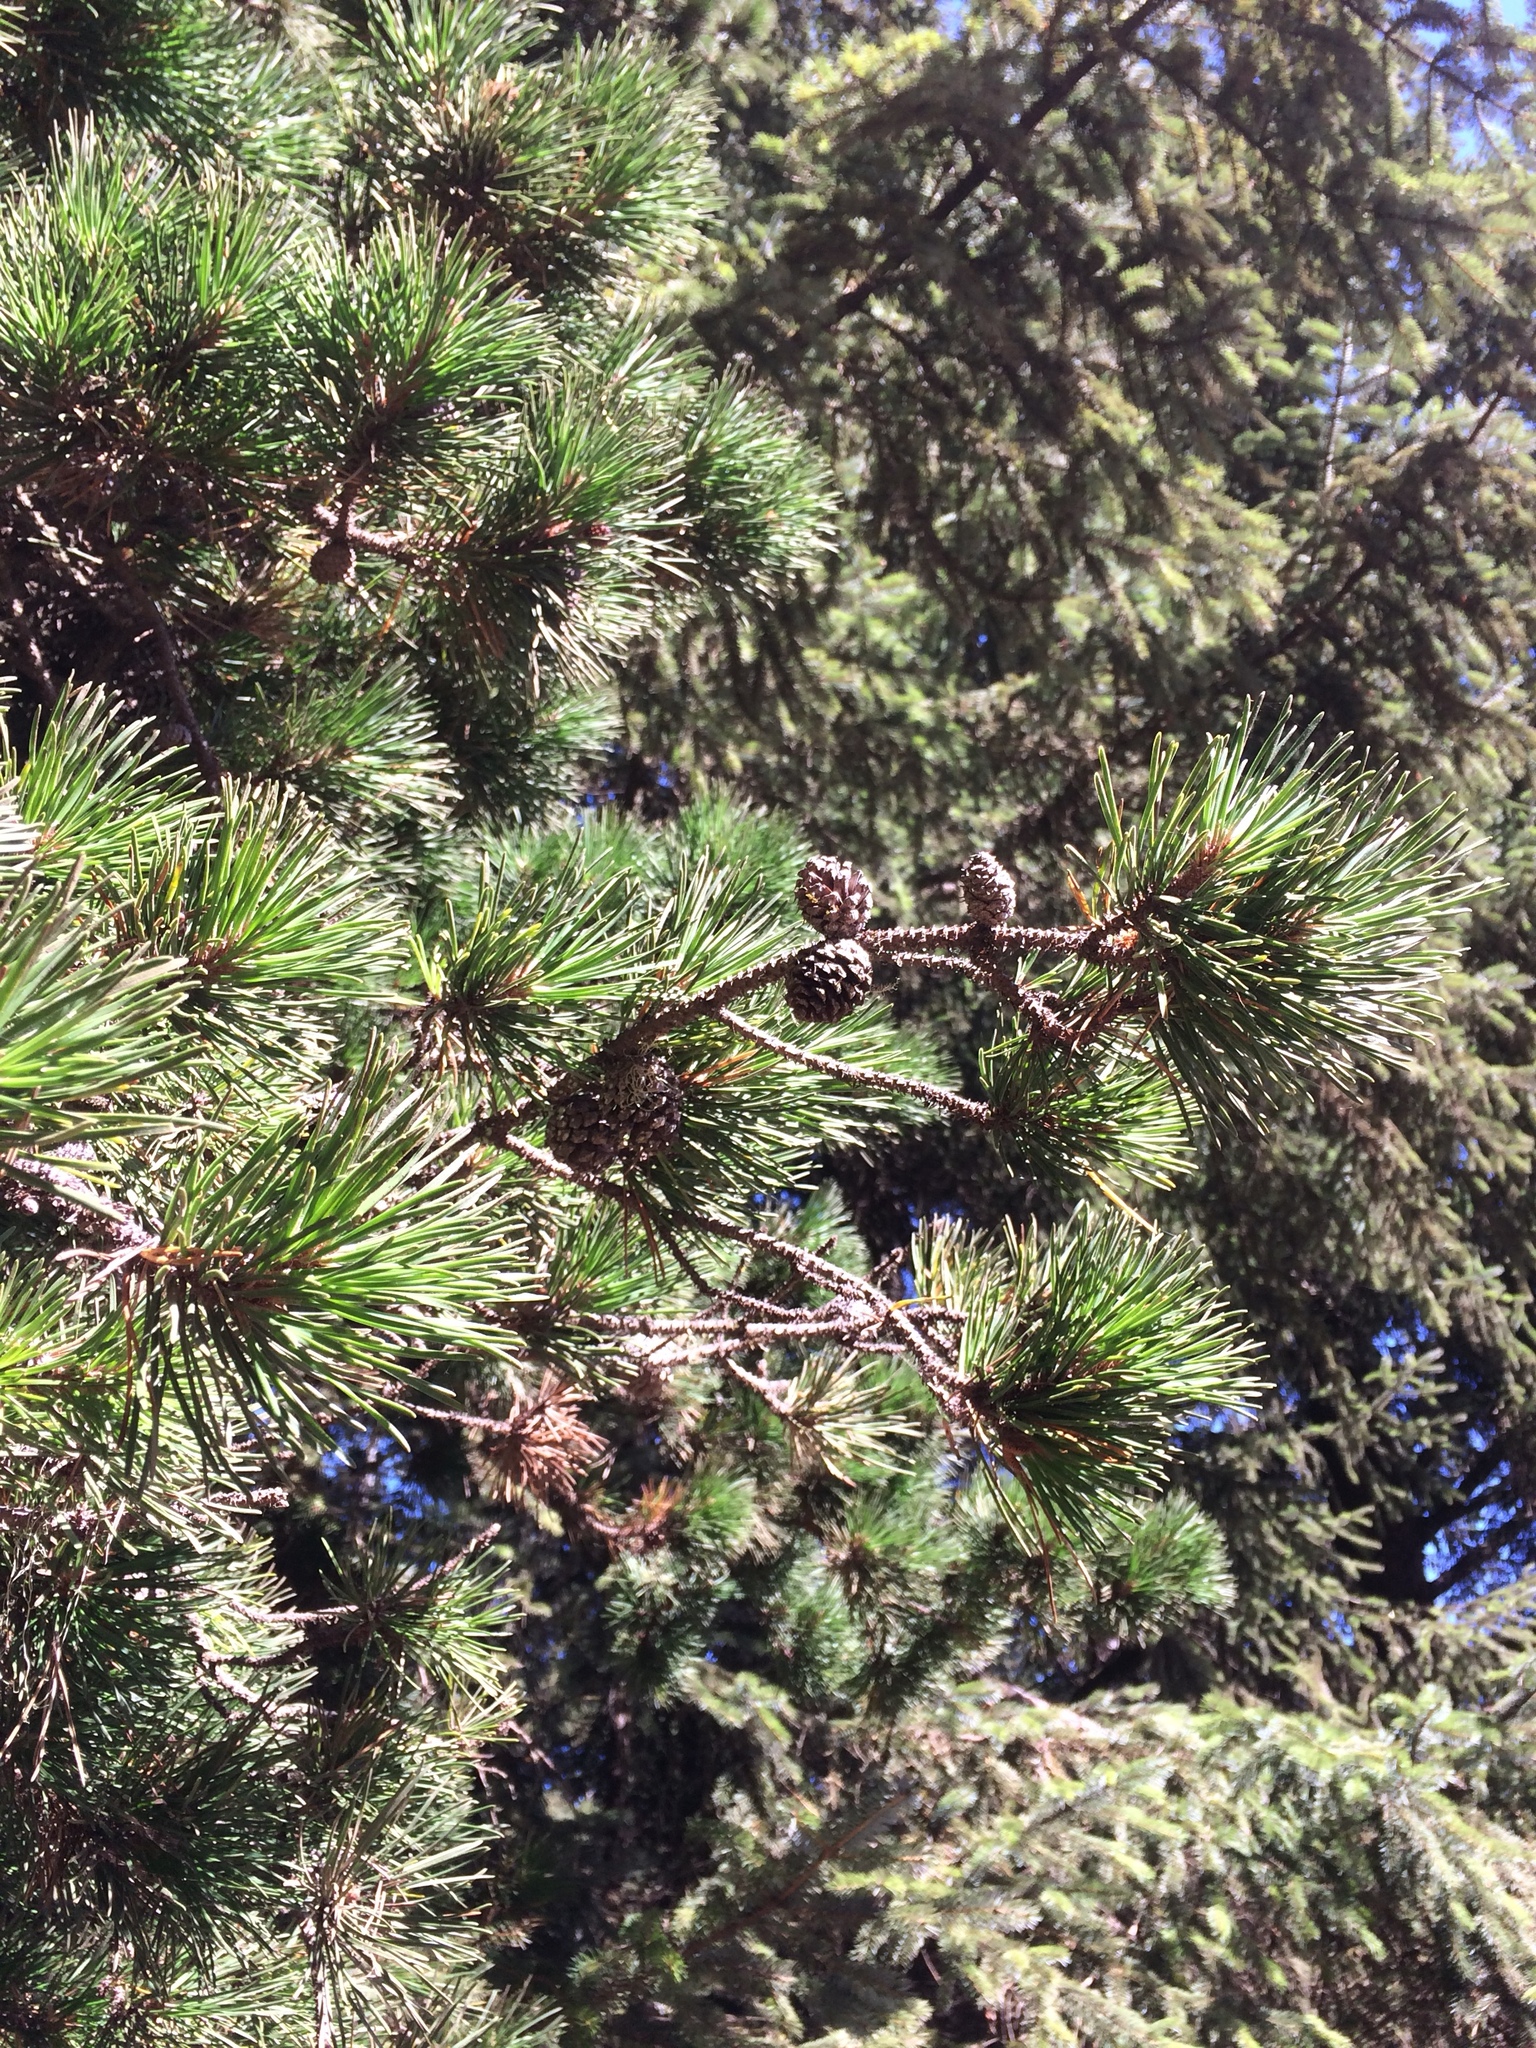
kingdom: Plantae
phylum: Tracheophyta
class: Pinopsida
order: Pinales
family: Pinaceae
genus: Pinus
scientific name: Pinus contorta
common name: Lodgepole pine
